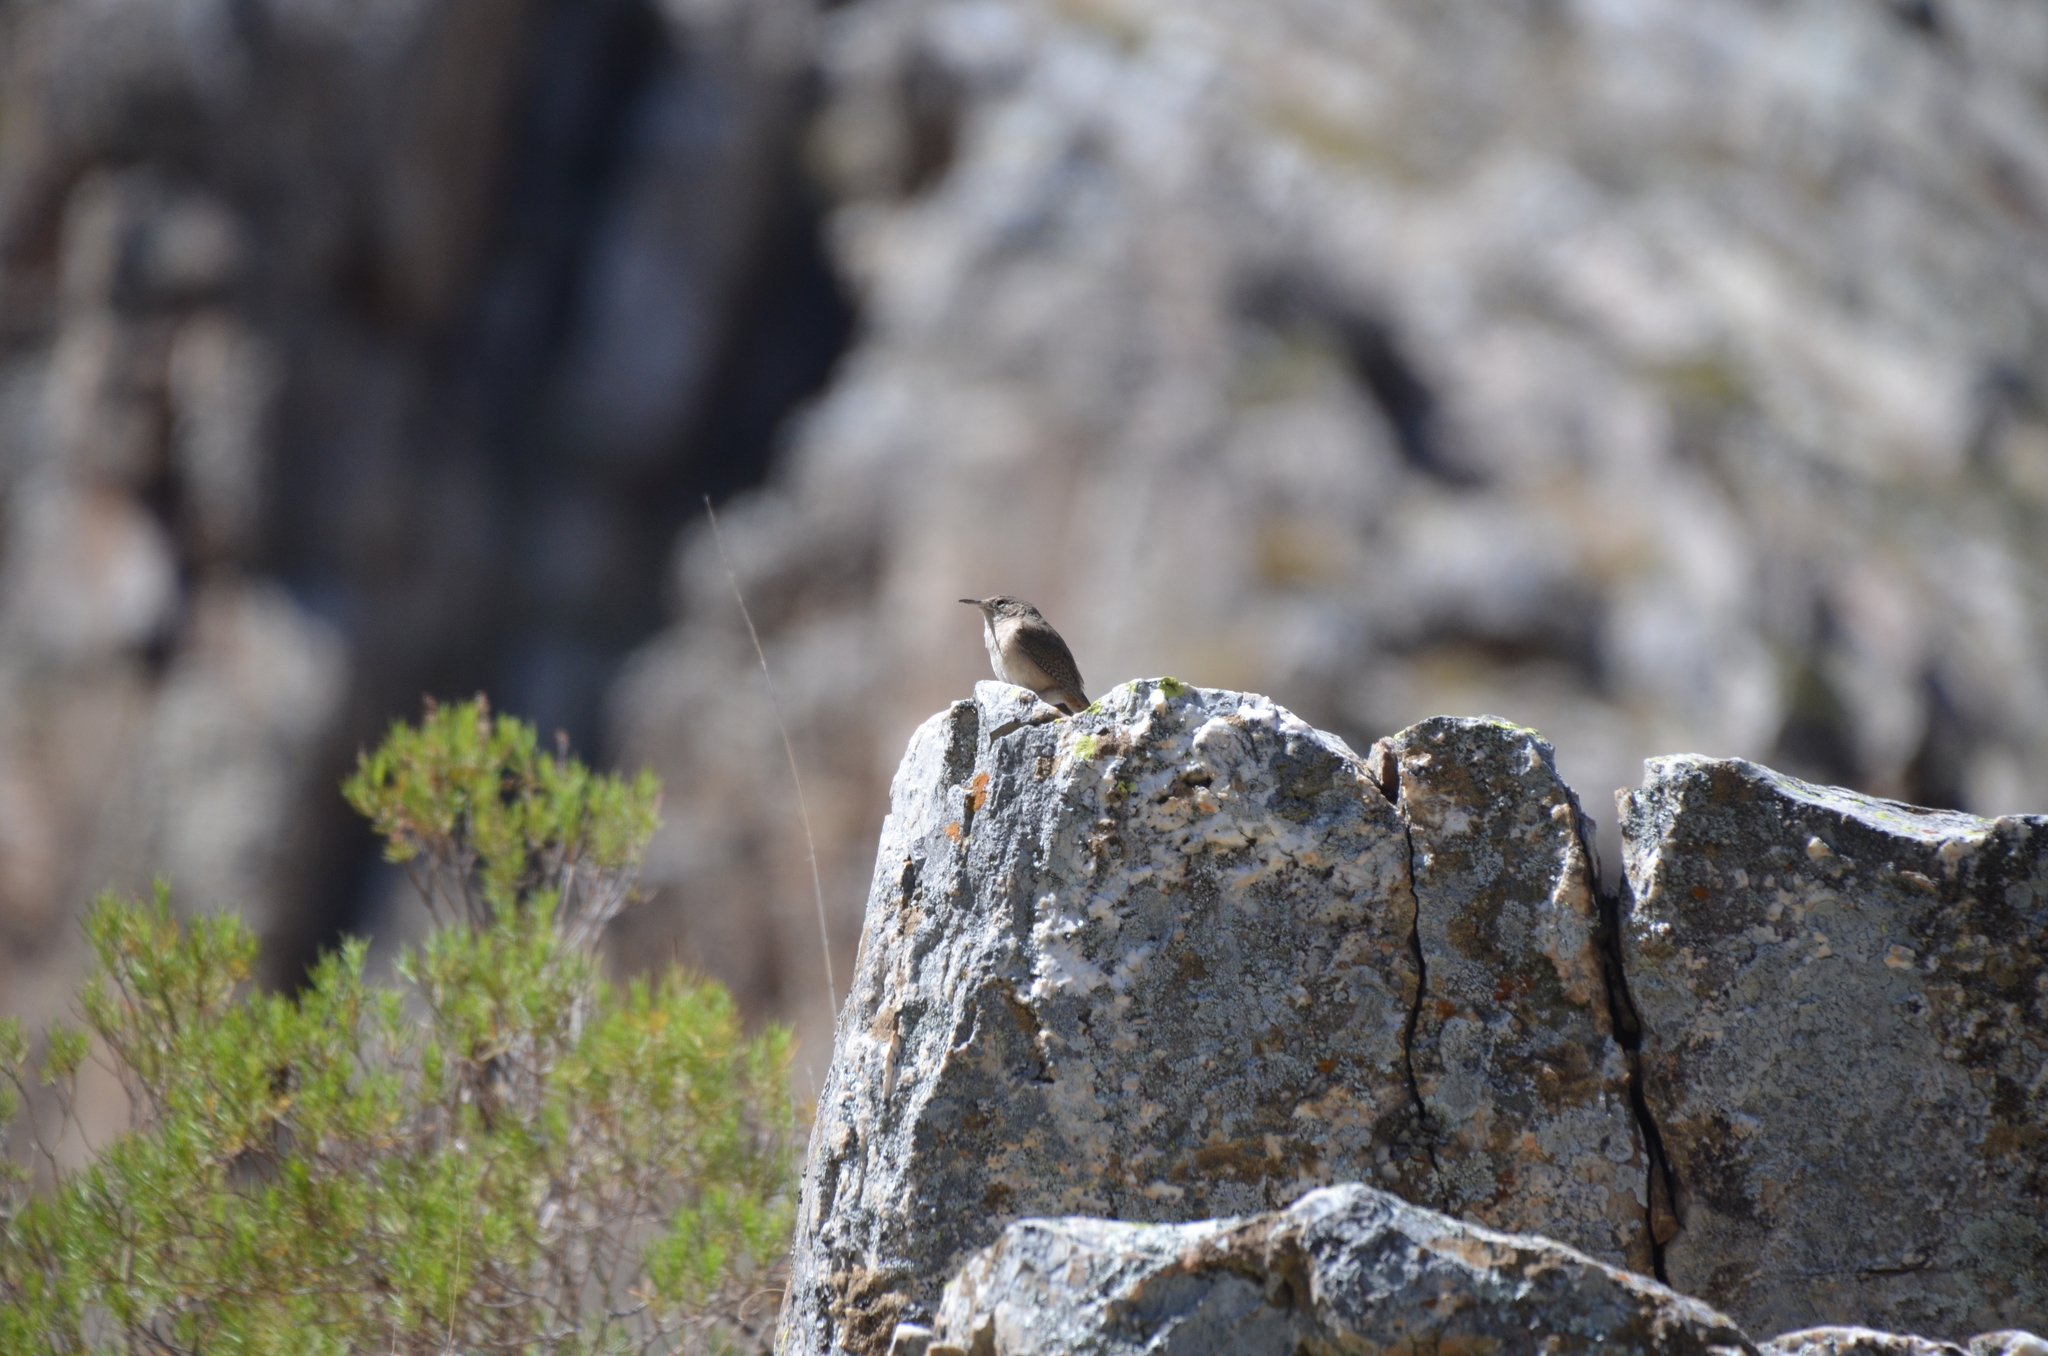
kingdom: Animalia
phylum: Chordata
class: Aves
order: Passeriformes
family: Troglodytidae
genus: Troglodytes
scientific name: Troglodytes aedon
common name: House wren
